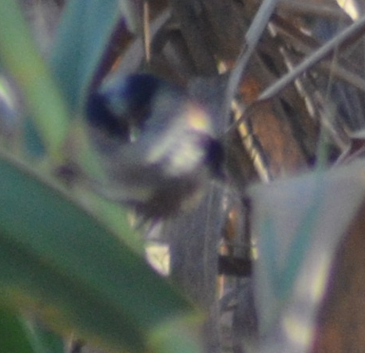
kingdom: Animalia
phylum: Chordata
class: Aves
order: Passeriformes
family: Aegithalidae
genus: Aegithalos
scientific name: Aegithalos caudatus
